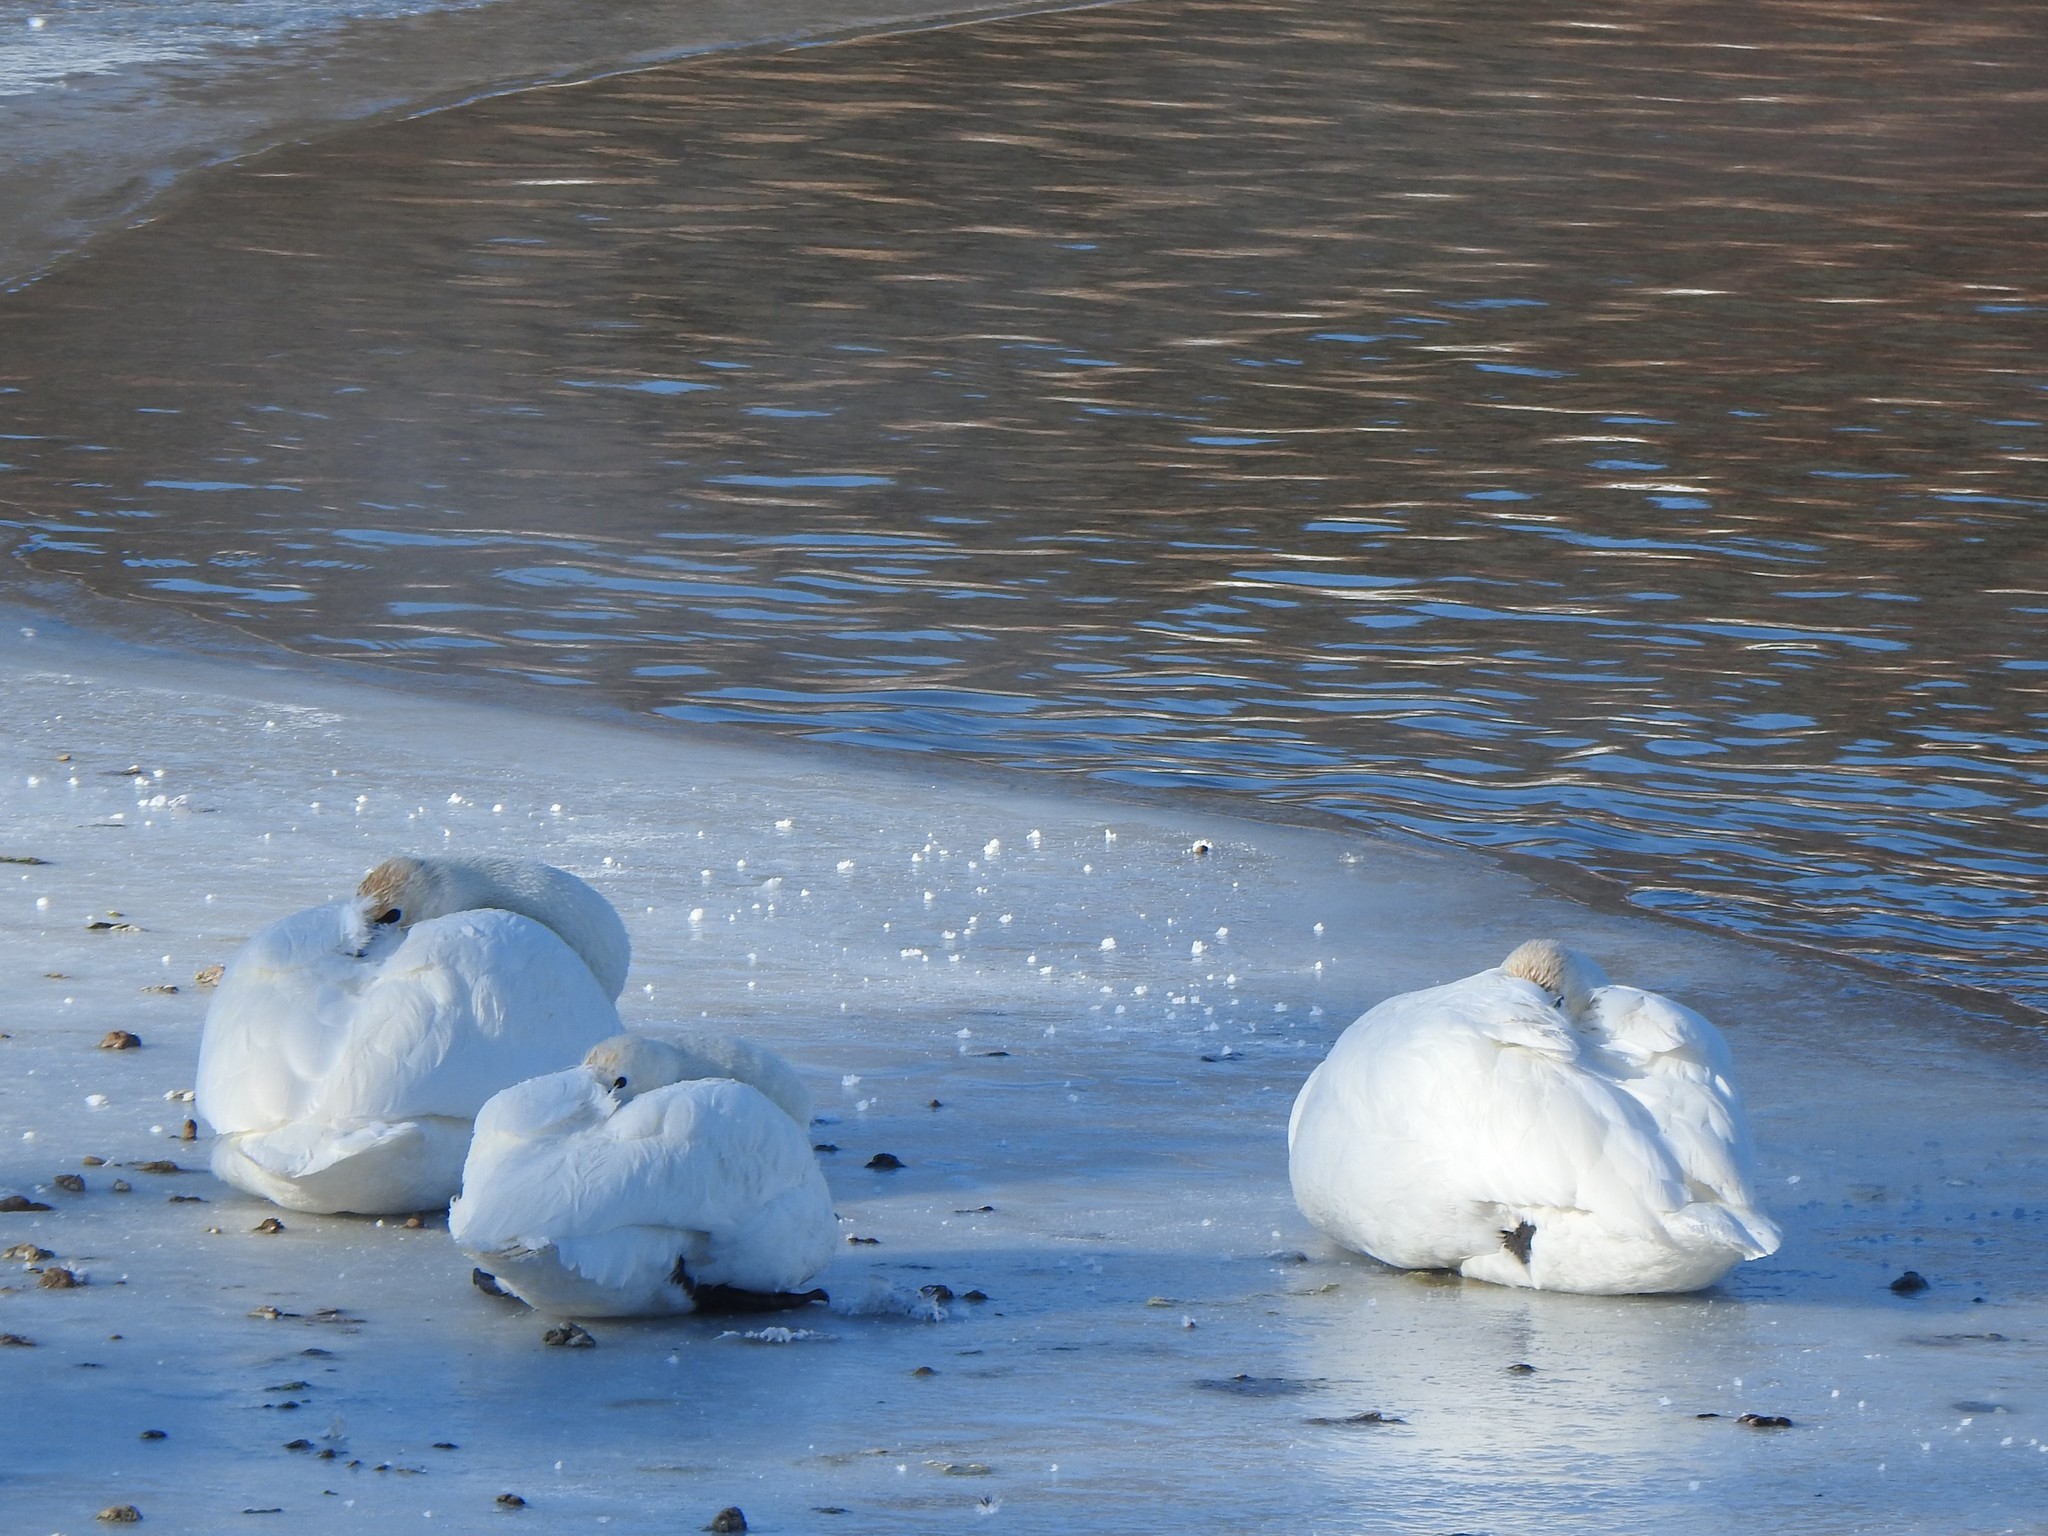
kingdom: Animalia
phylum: Chordata
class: Aves
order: Anseriformes
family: Anatidae
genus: Cygnus
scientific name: Cygnus buccinator
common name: Trumpeter swan
